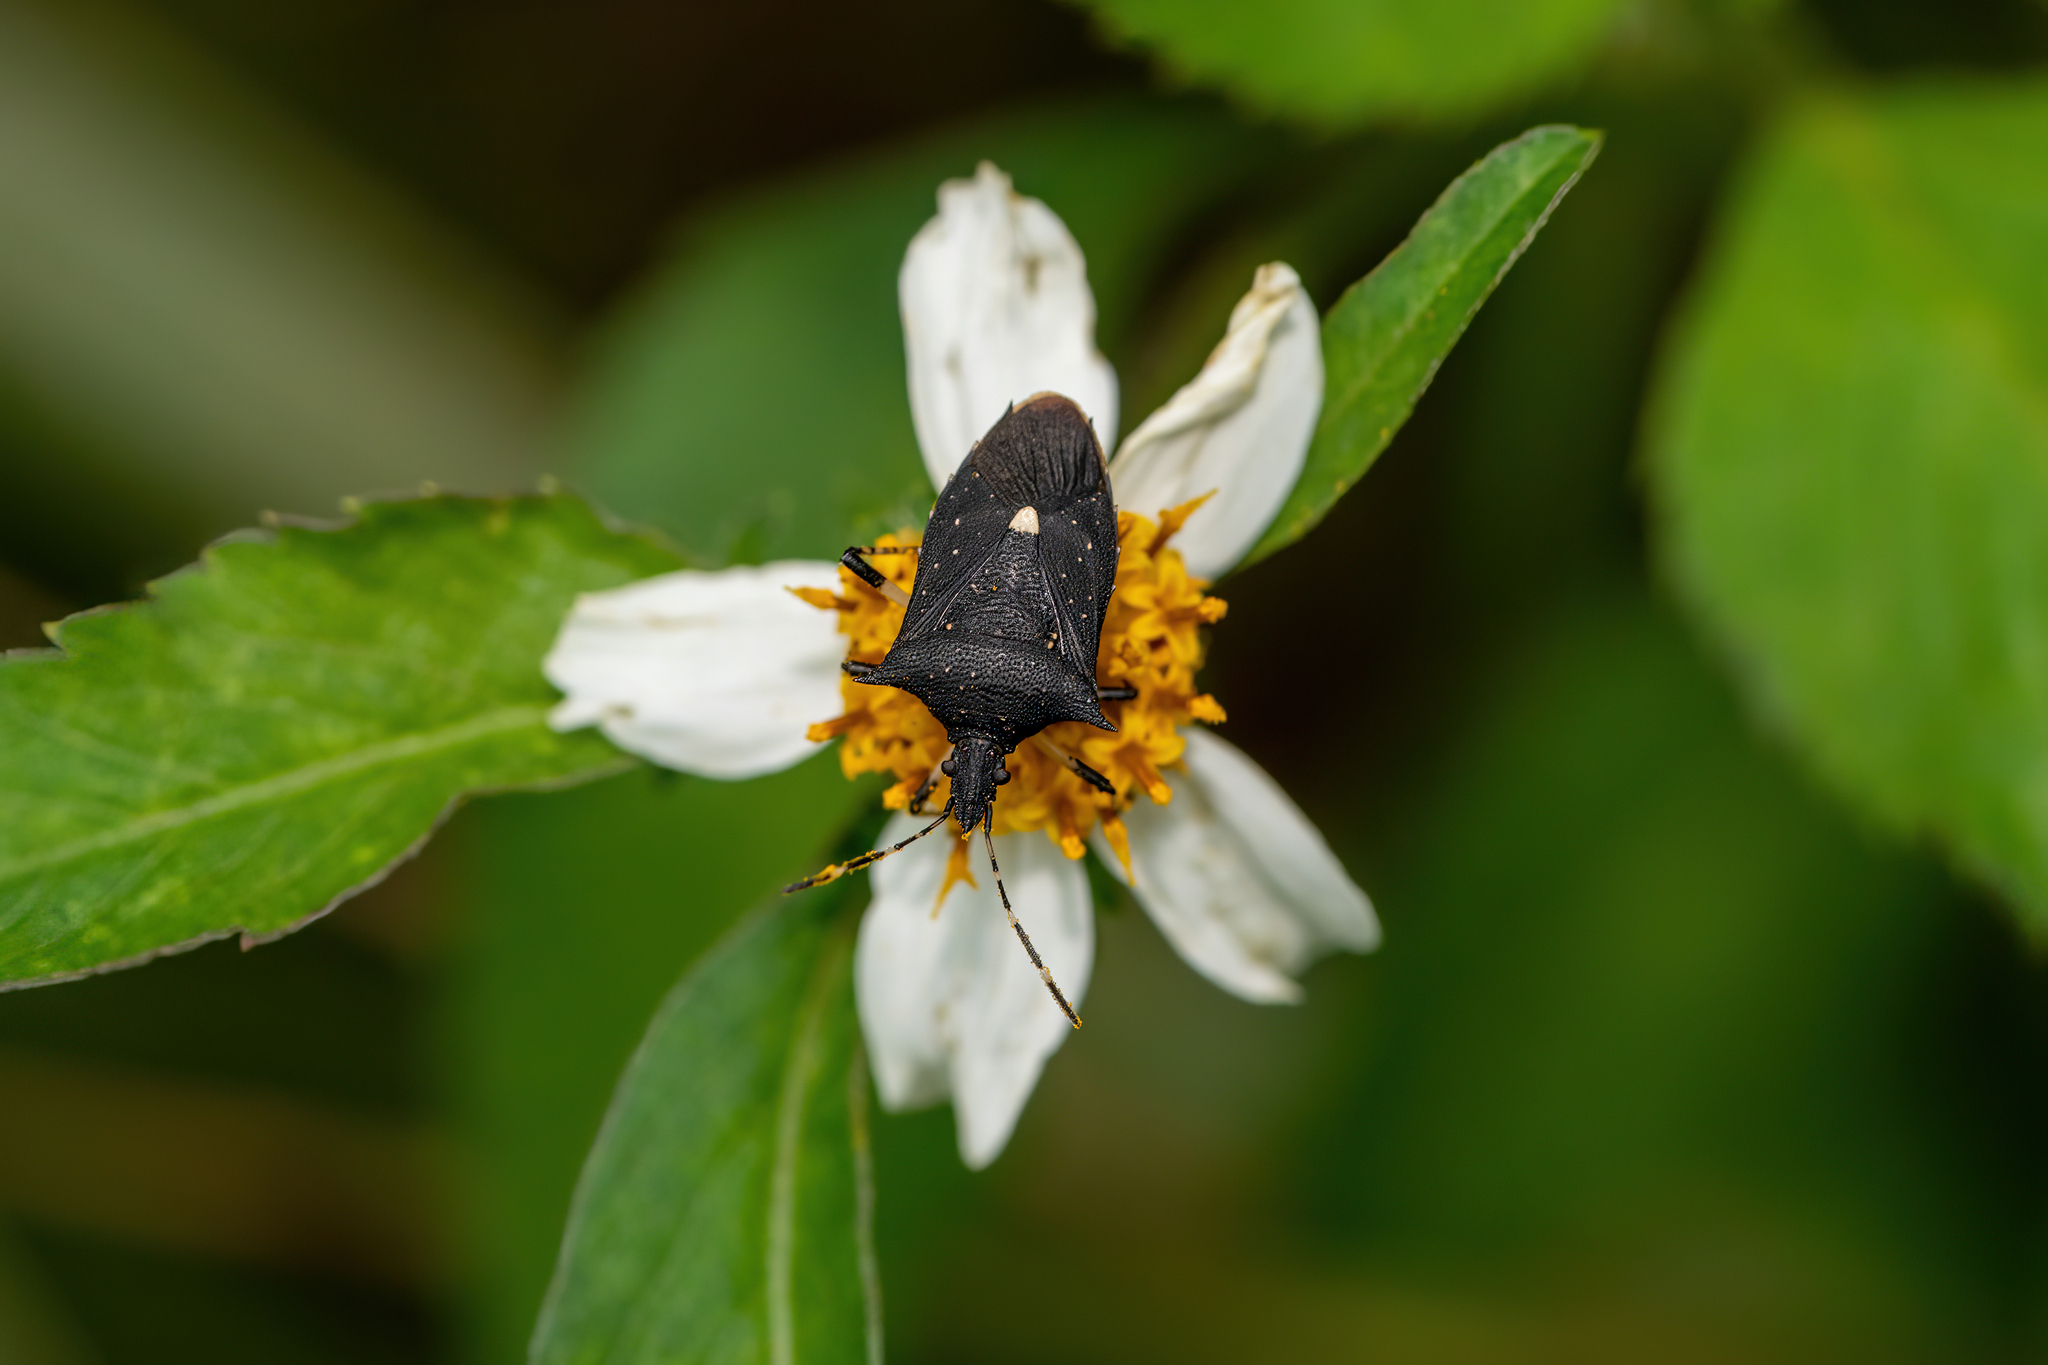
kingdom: Animalia
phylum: Arthropoda
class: Insecta
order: Hemiptera
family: Pentatomidae
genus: Proxys
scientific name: Proxys punctulatus
